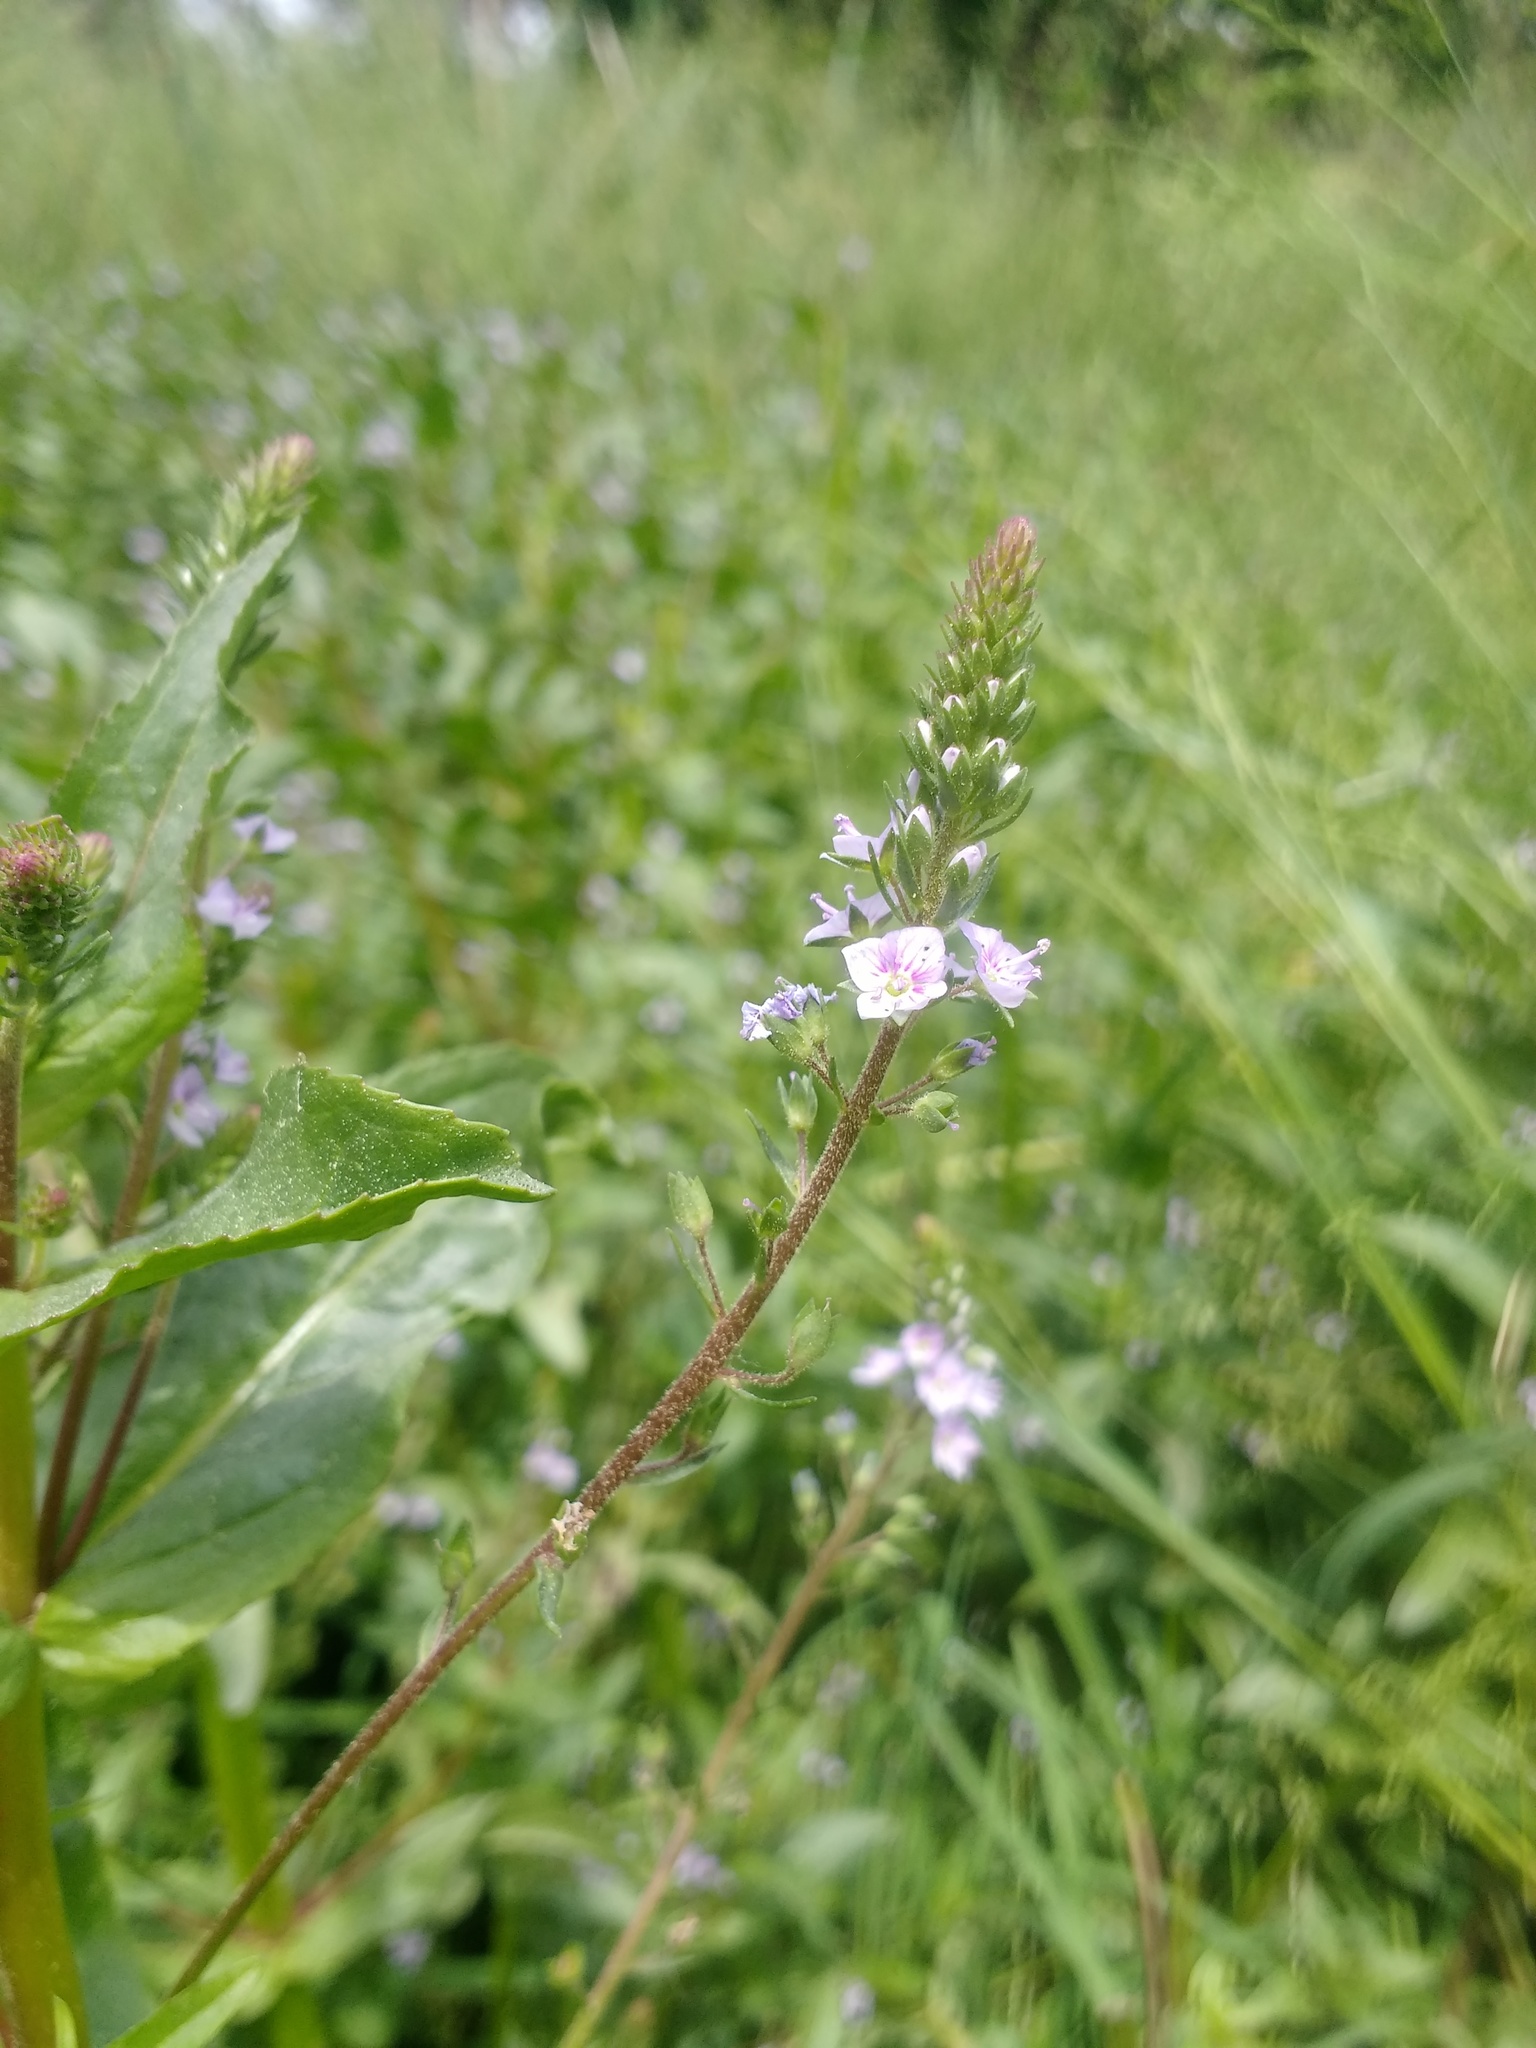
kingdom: Plantae
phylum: Tracheophyta
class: Magnoliopsida
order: Lamiales
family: Plantaginaceae
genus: Veronica
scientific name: Veronica anagallis-aquatica
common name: Water speedwell
